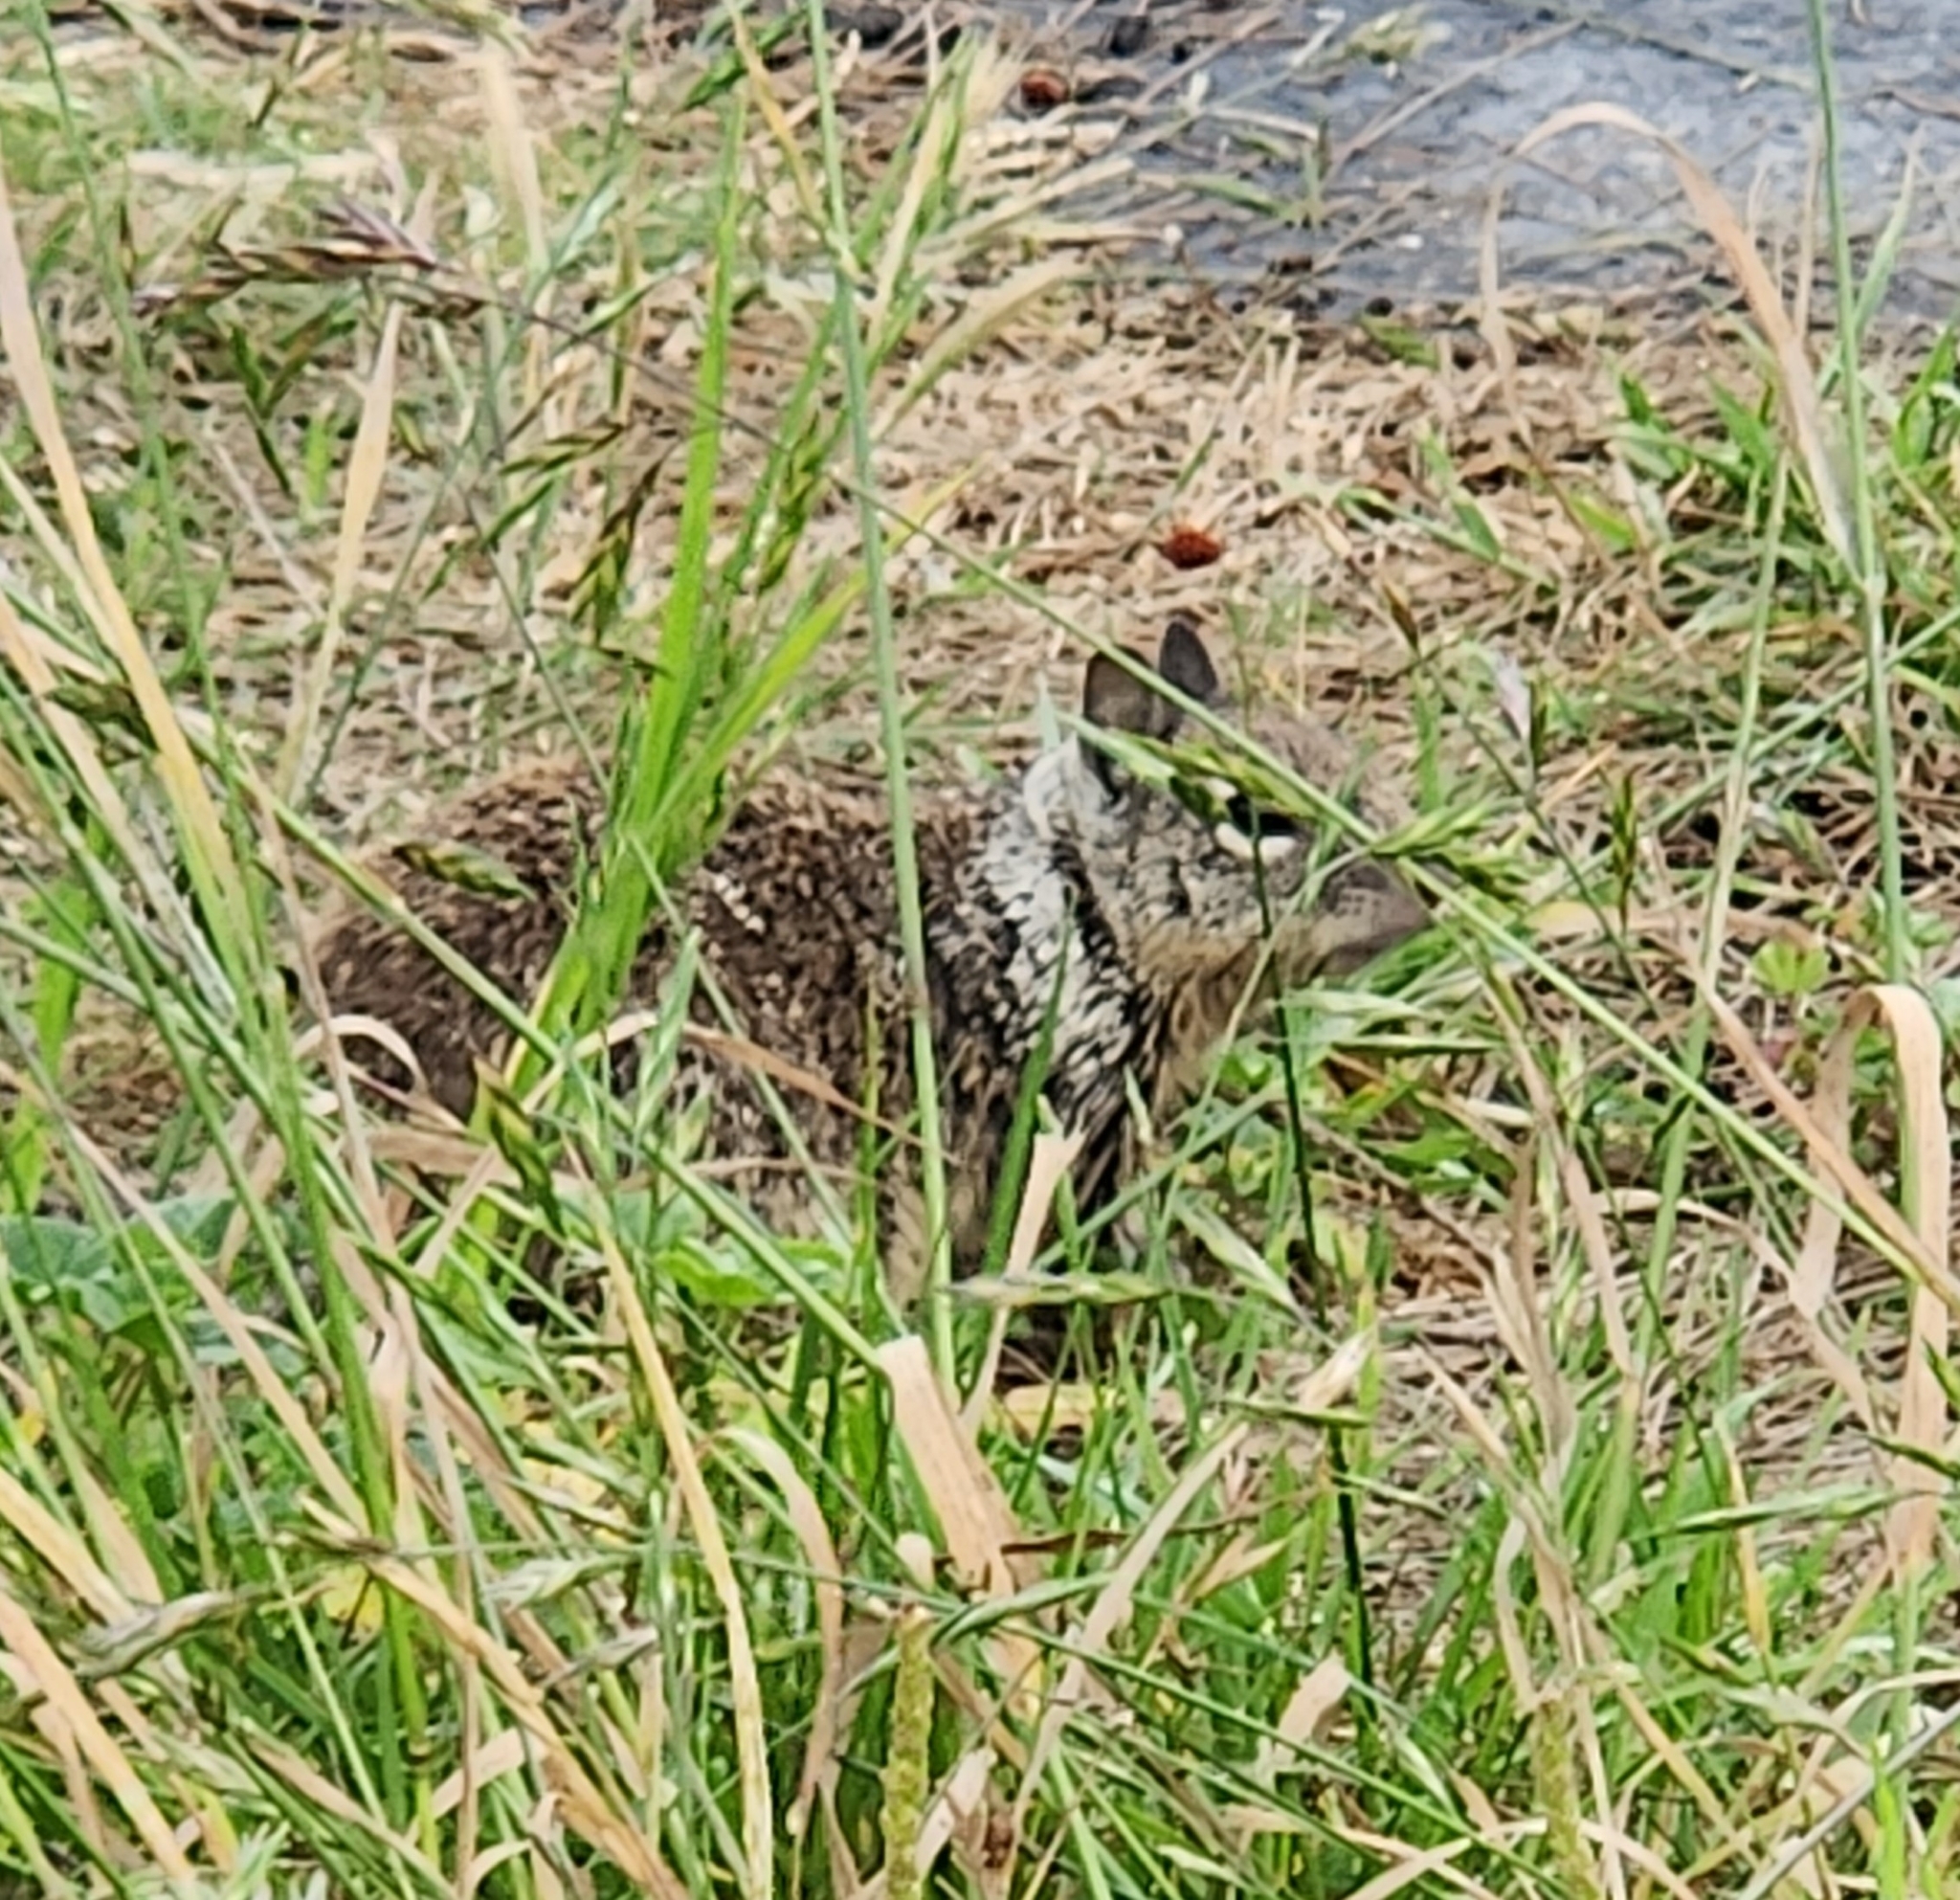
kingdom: Animalia
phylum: Chordata
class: Mammalia
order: Rodentia
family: Sciuridae
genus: Otospermophilus
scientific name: Otospermophilus beecheyi
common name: California ground squirrel
